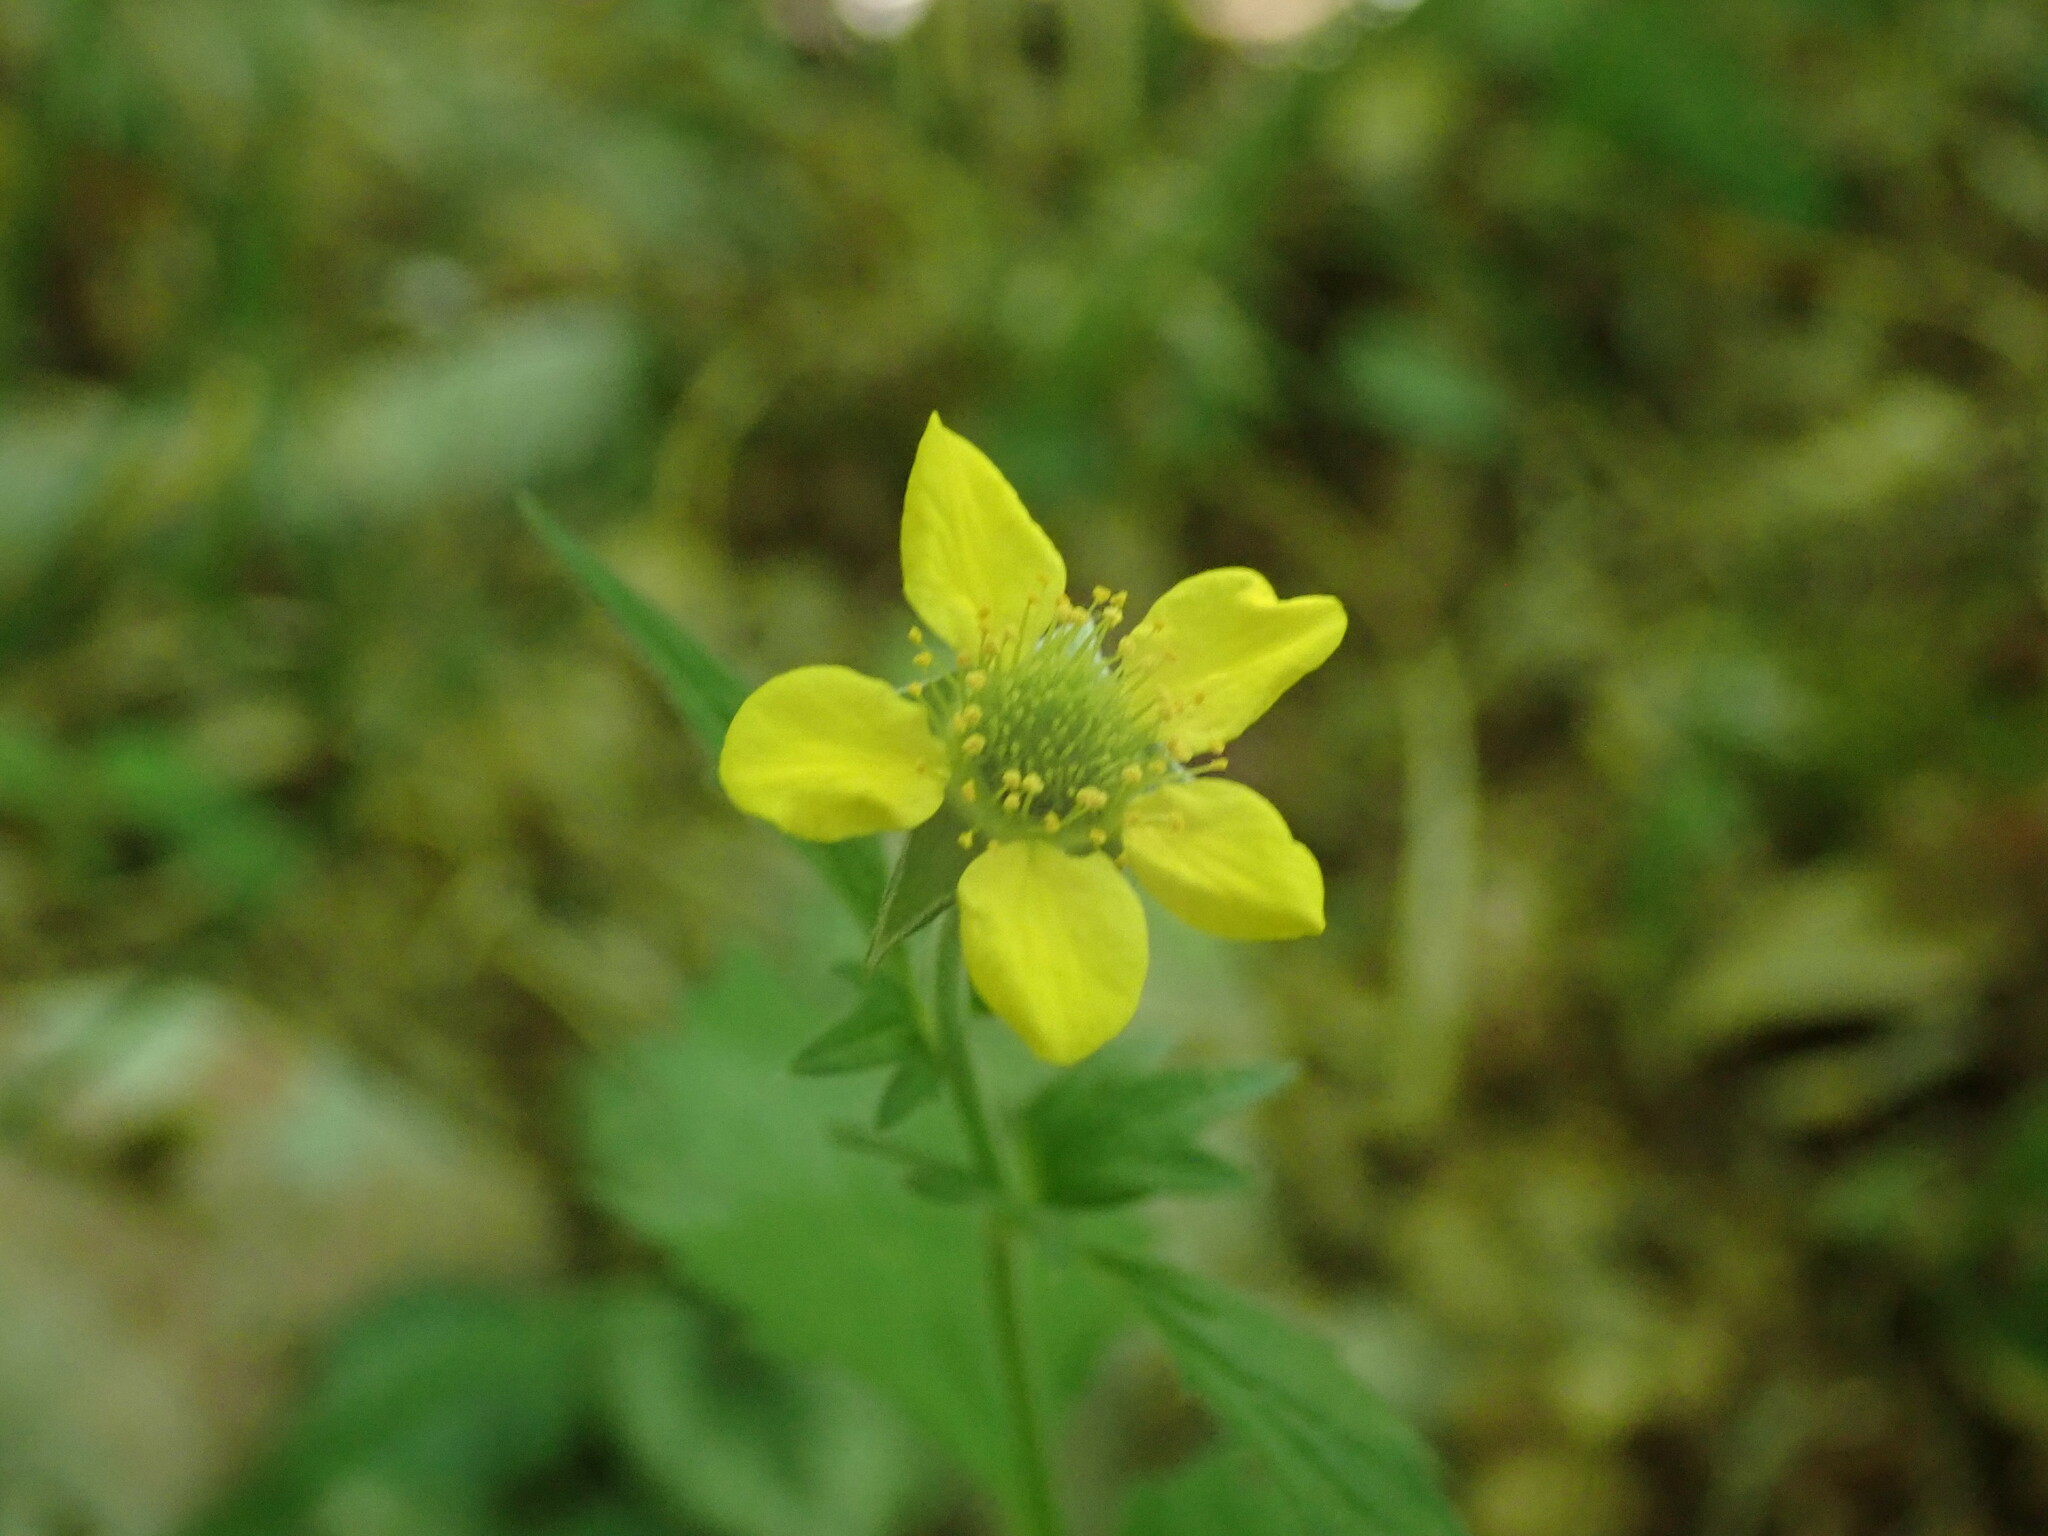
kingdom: Plantae
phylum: Tracheophyta
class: Magnoliopsida
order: Rosales
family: Rosaceae
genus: Geum
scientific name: Geum urbanum
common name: Wood avens
